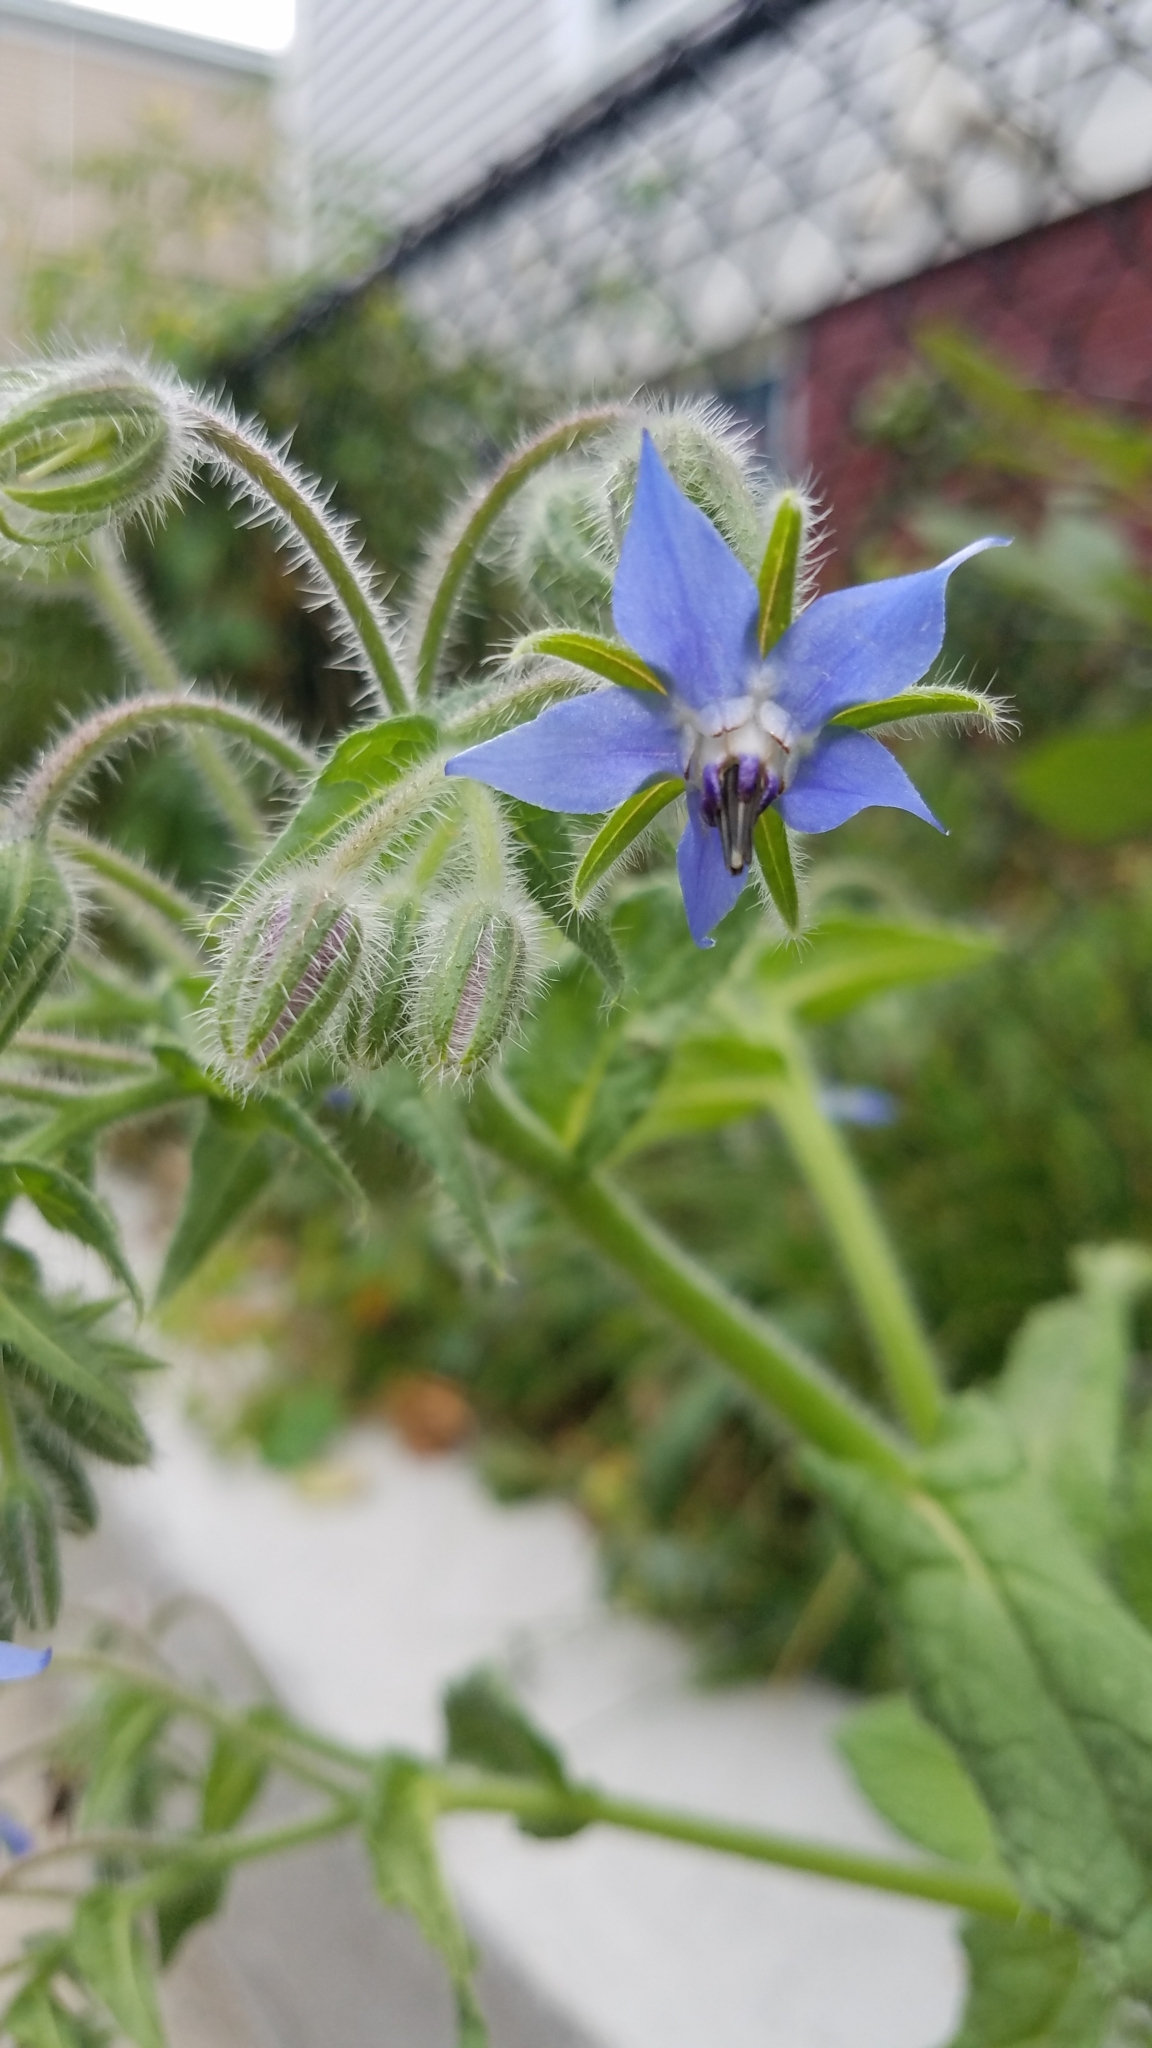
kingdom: Plantae
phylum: Tracheophyta
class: Magnoliopsida
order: Boraginales
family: Boraginaceae
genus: Borago
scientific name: Borago officinalis
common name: Borage
